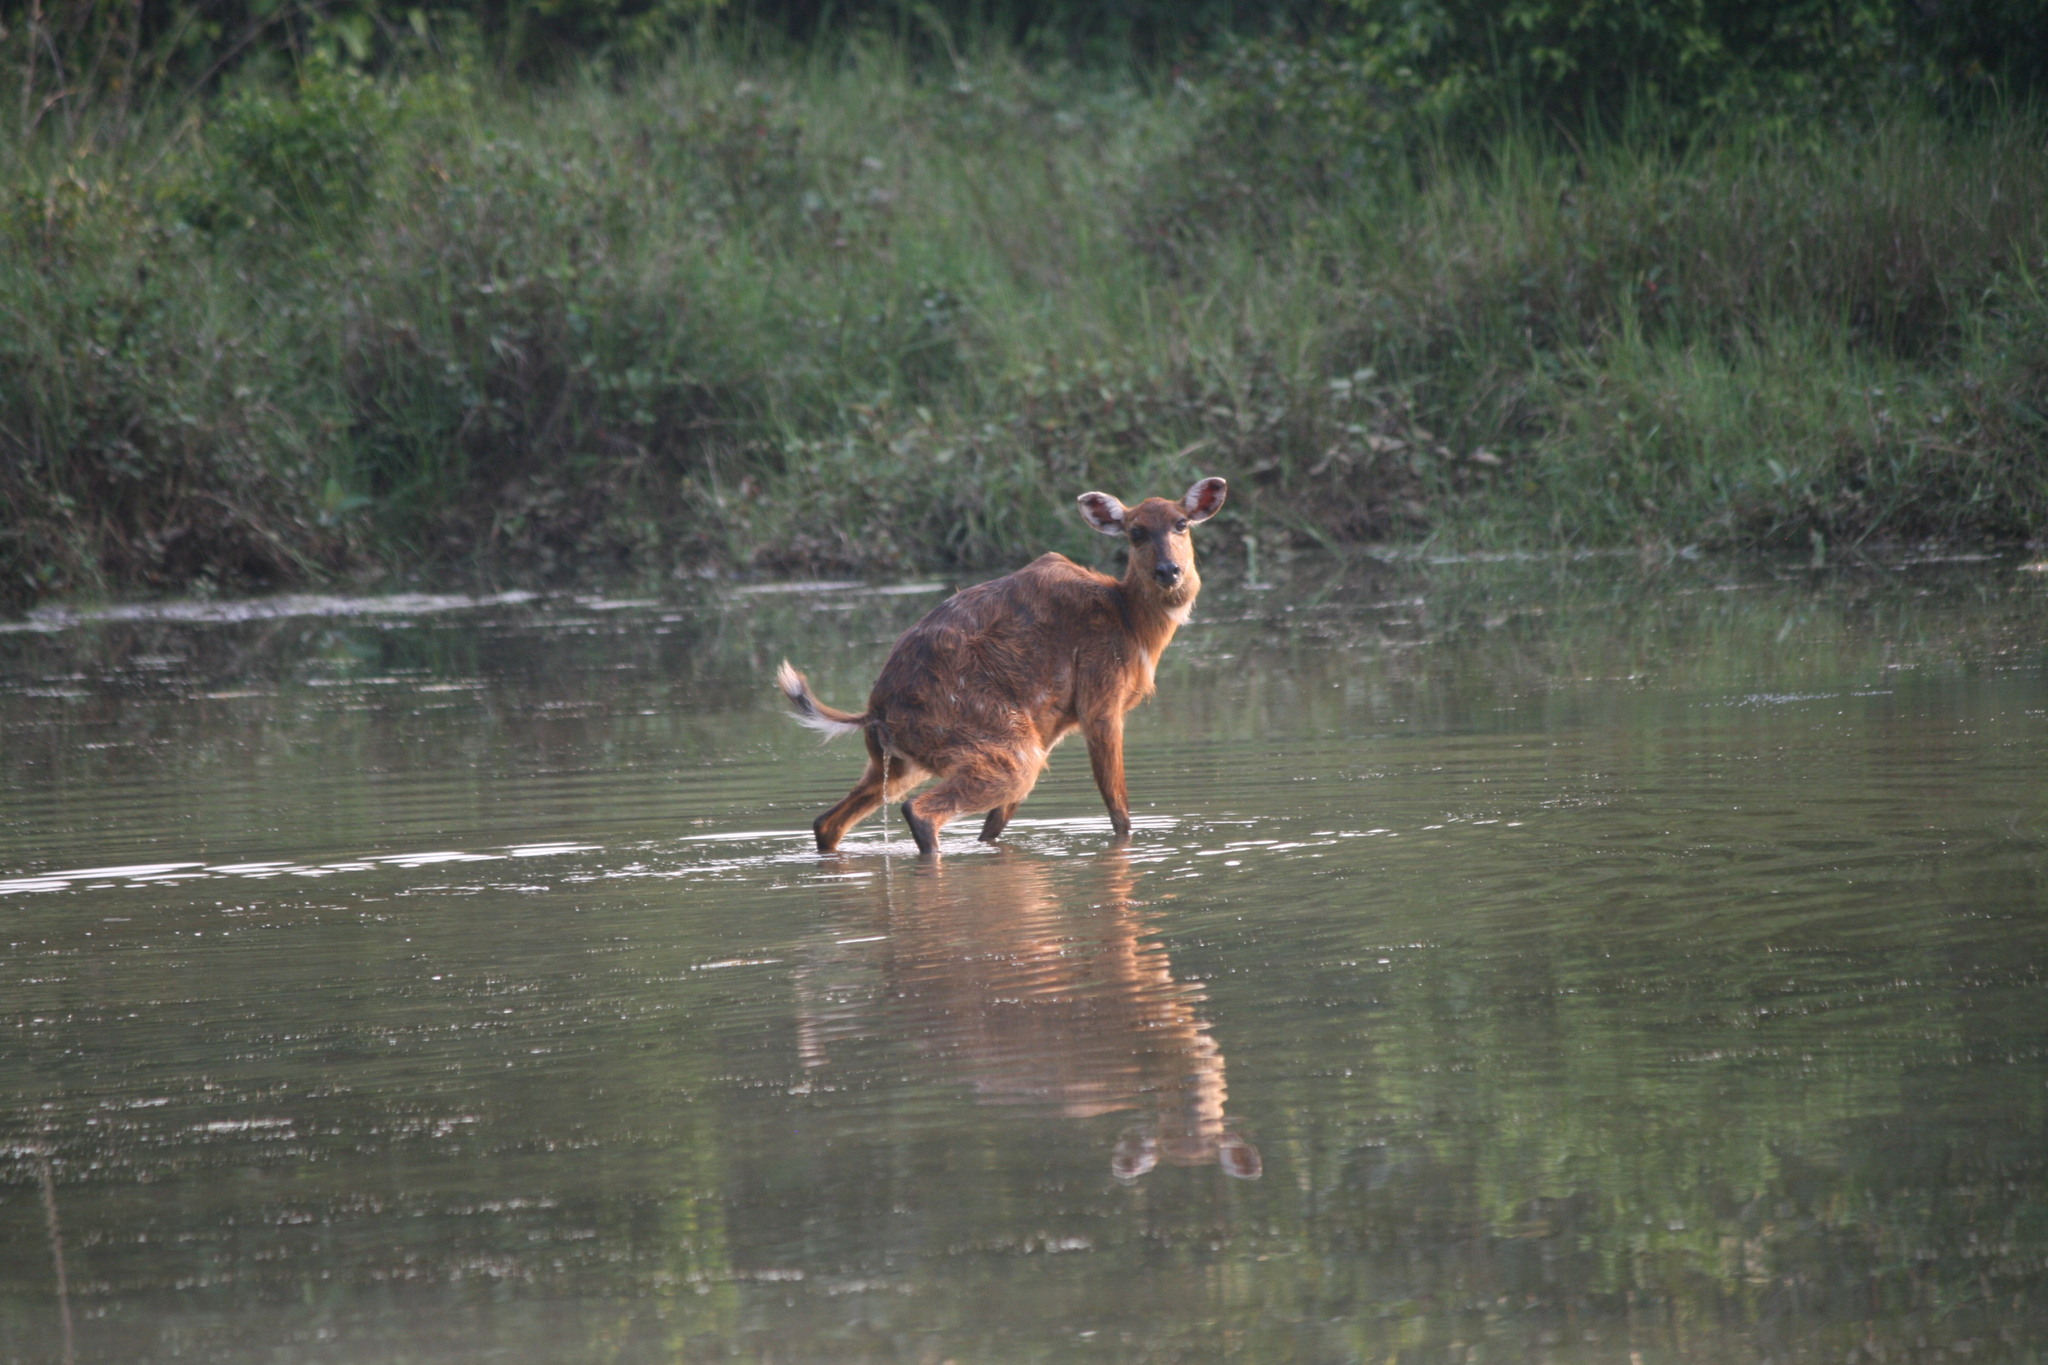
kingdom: Animalia
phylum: Chordata
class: Mammalia
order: Artiodactyla
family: Bovidae
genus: Tragelaphus
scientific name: Tragelaphus spekii
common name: Sitatunga
